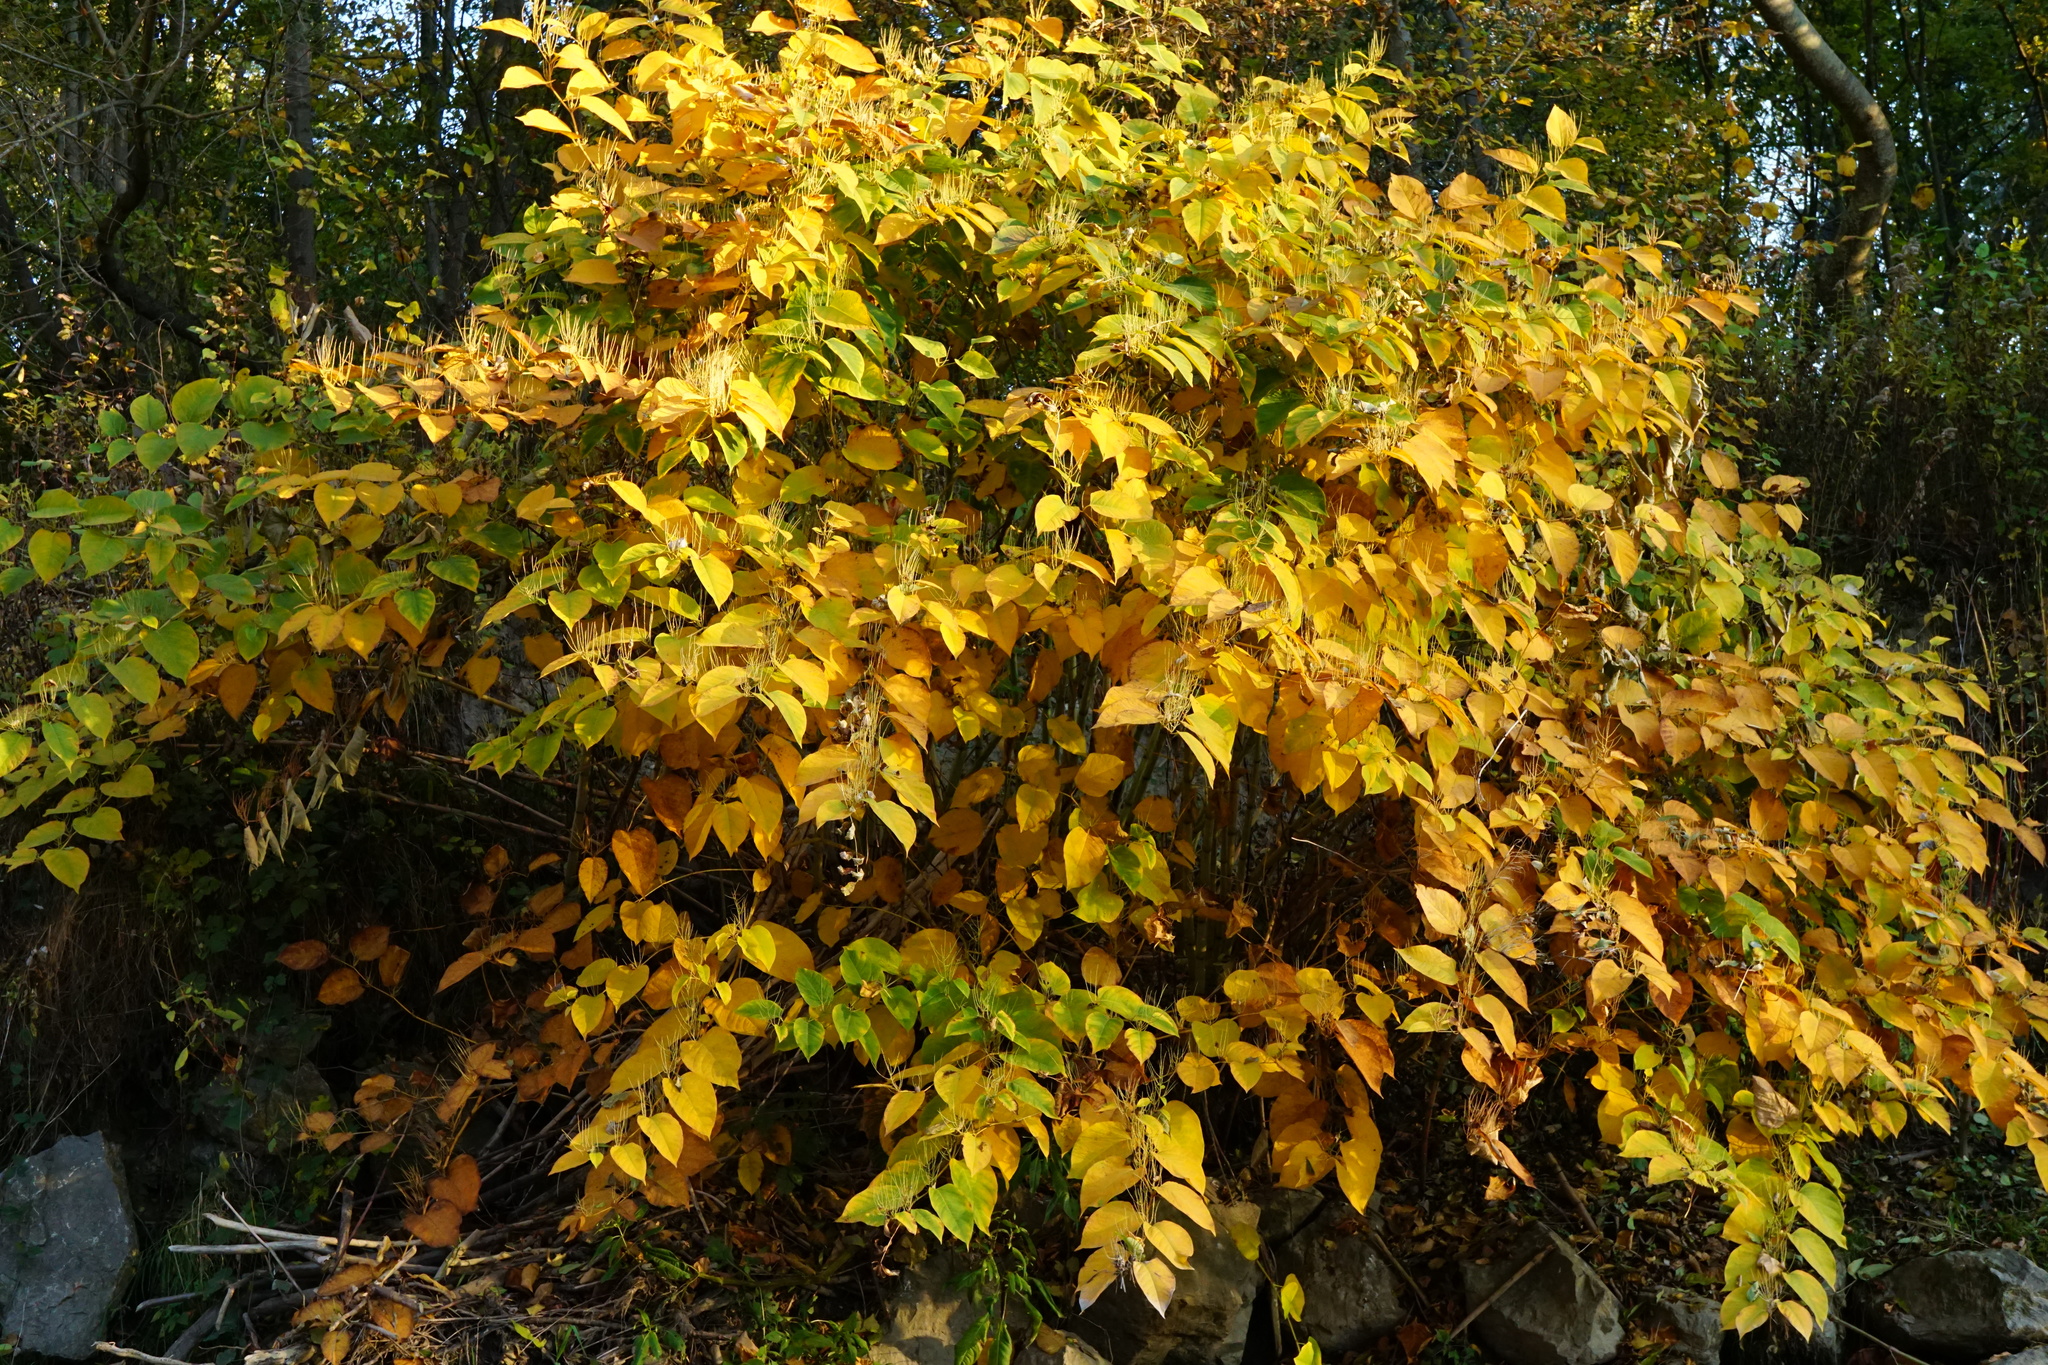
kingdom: Plantae
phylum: Tracheophyta
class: Magnoliopsida
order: Caryophyllales
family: Polygonaceae
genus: Reynoutria
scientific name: Reynoutria bohemica
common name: Bohemian knotweed
